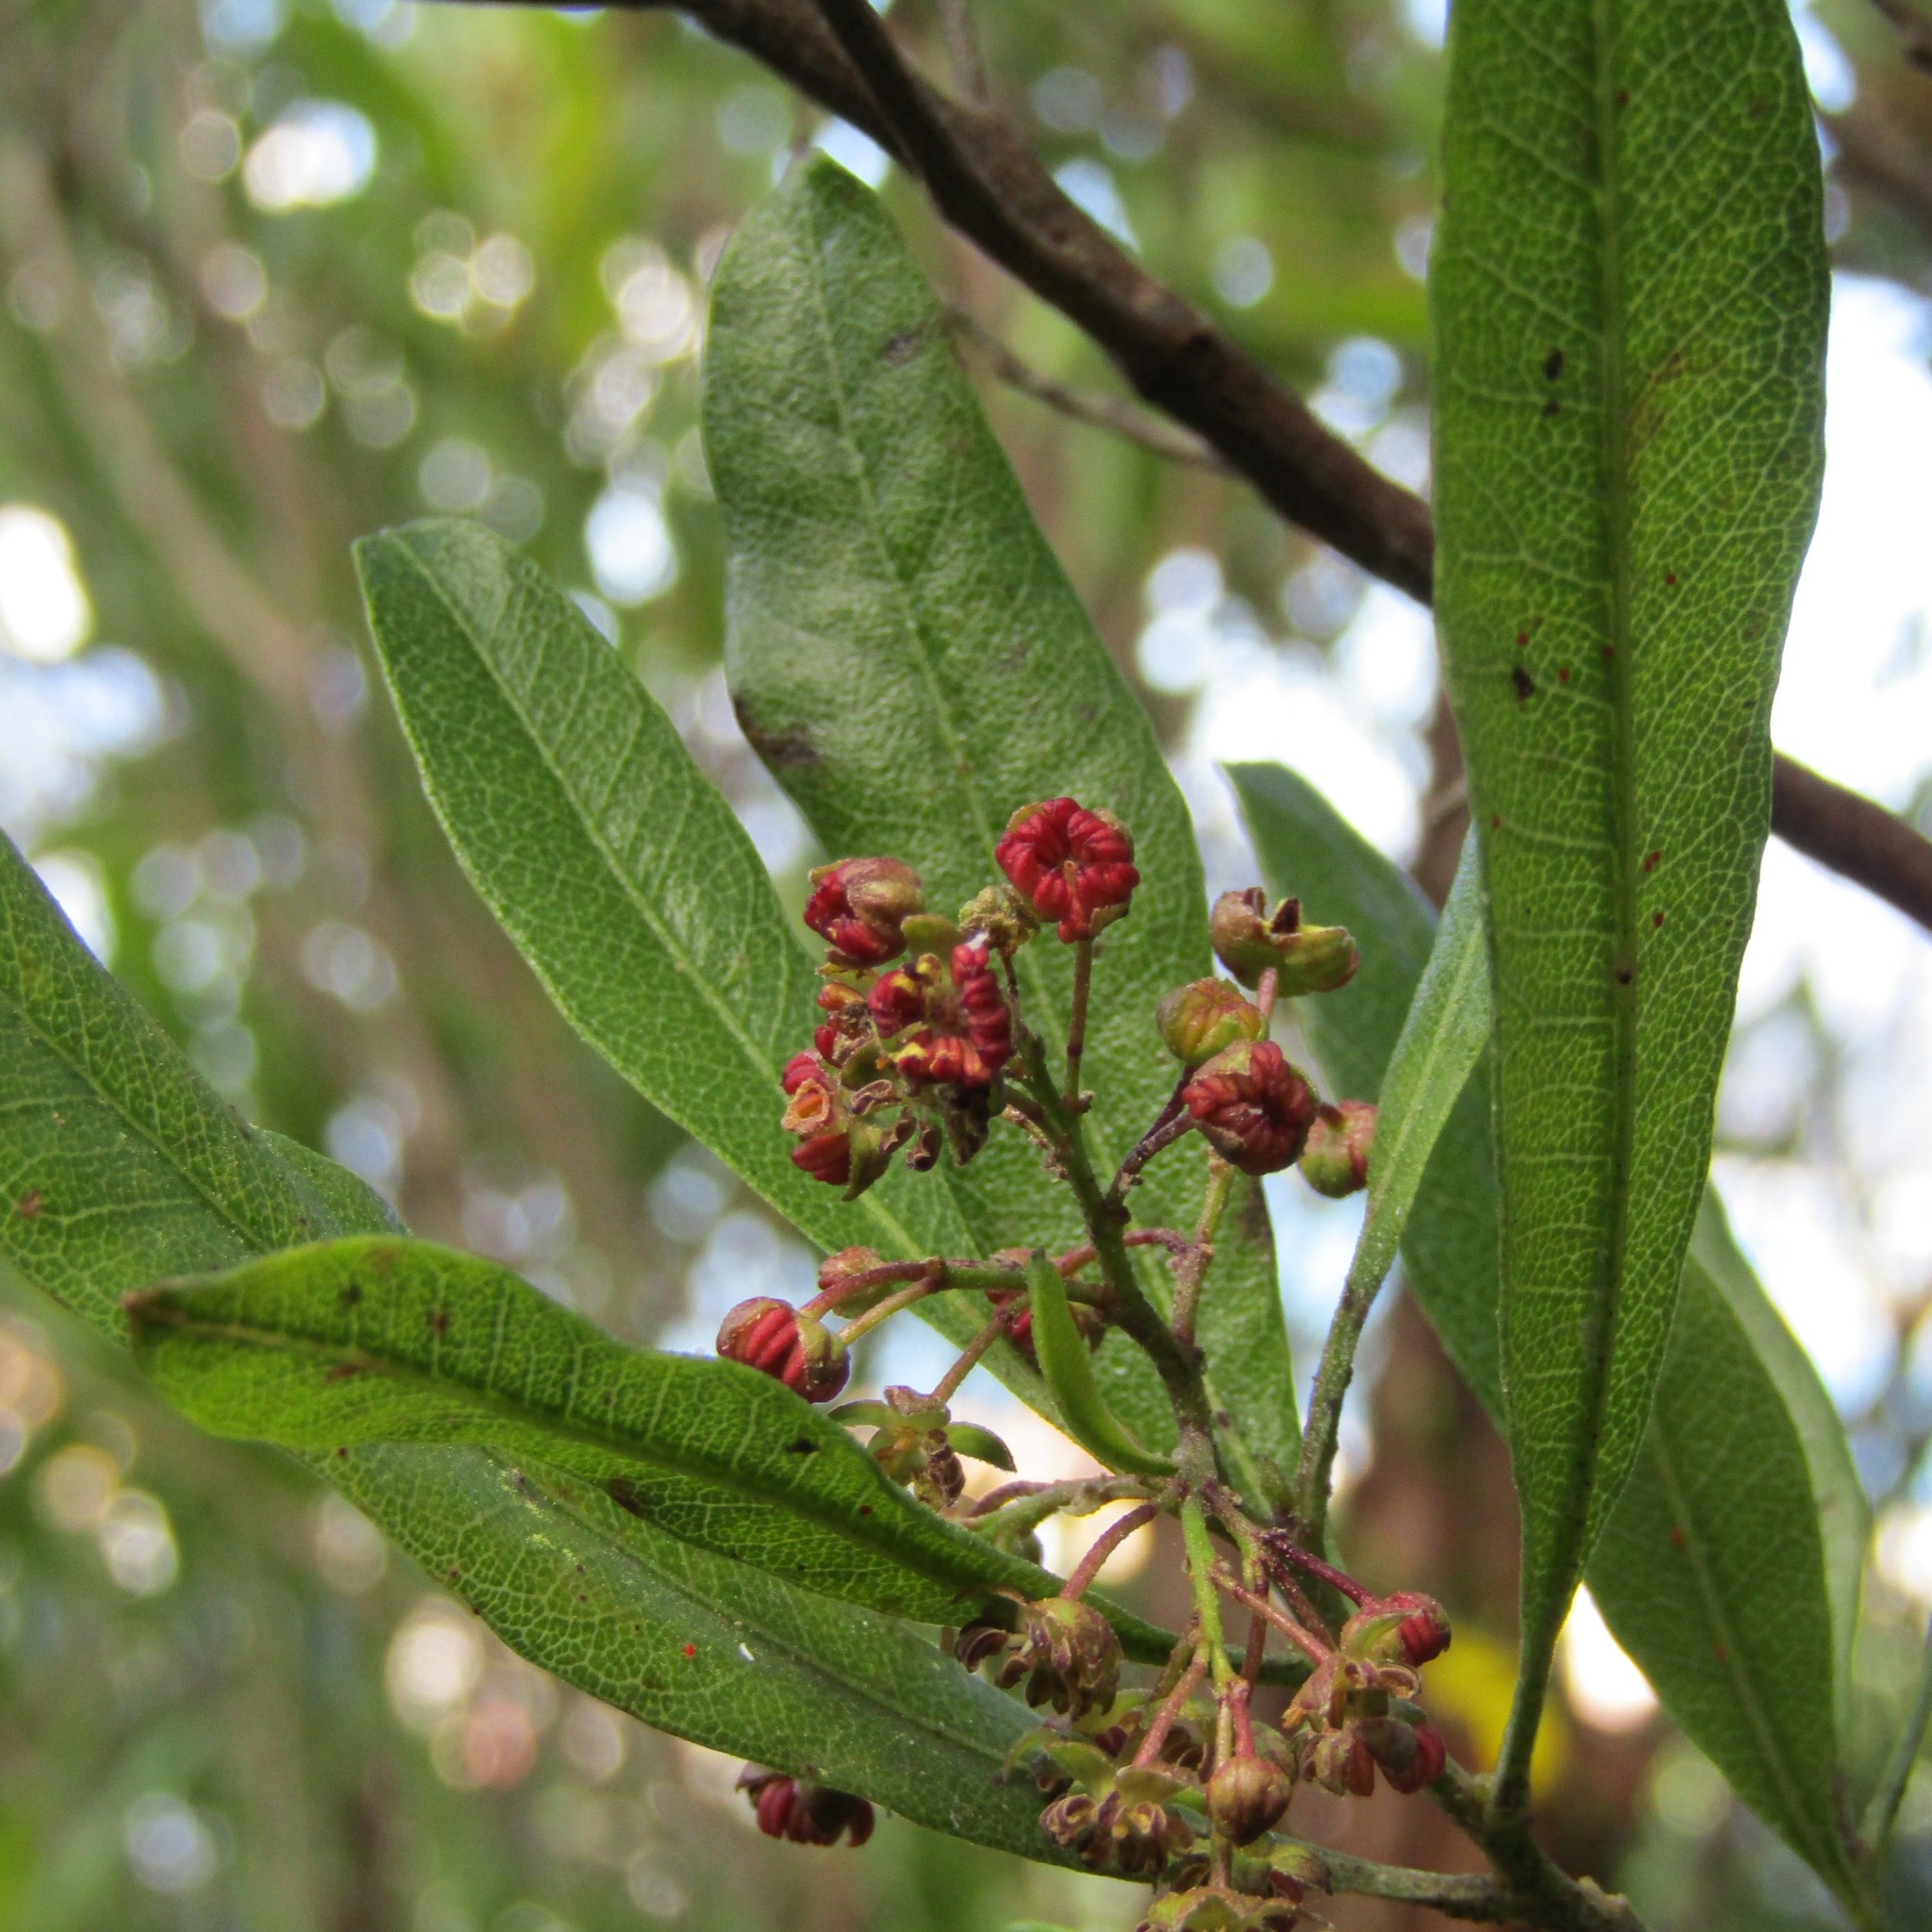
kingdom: Plantae
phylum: Tracheophyta
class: Magnoliopsida
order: Sapindales
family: Sapindaceae
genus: Dodonaea
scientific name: Dodonaea viscosa
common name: Hopbush
